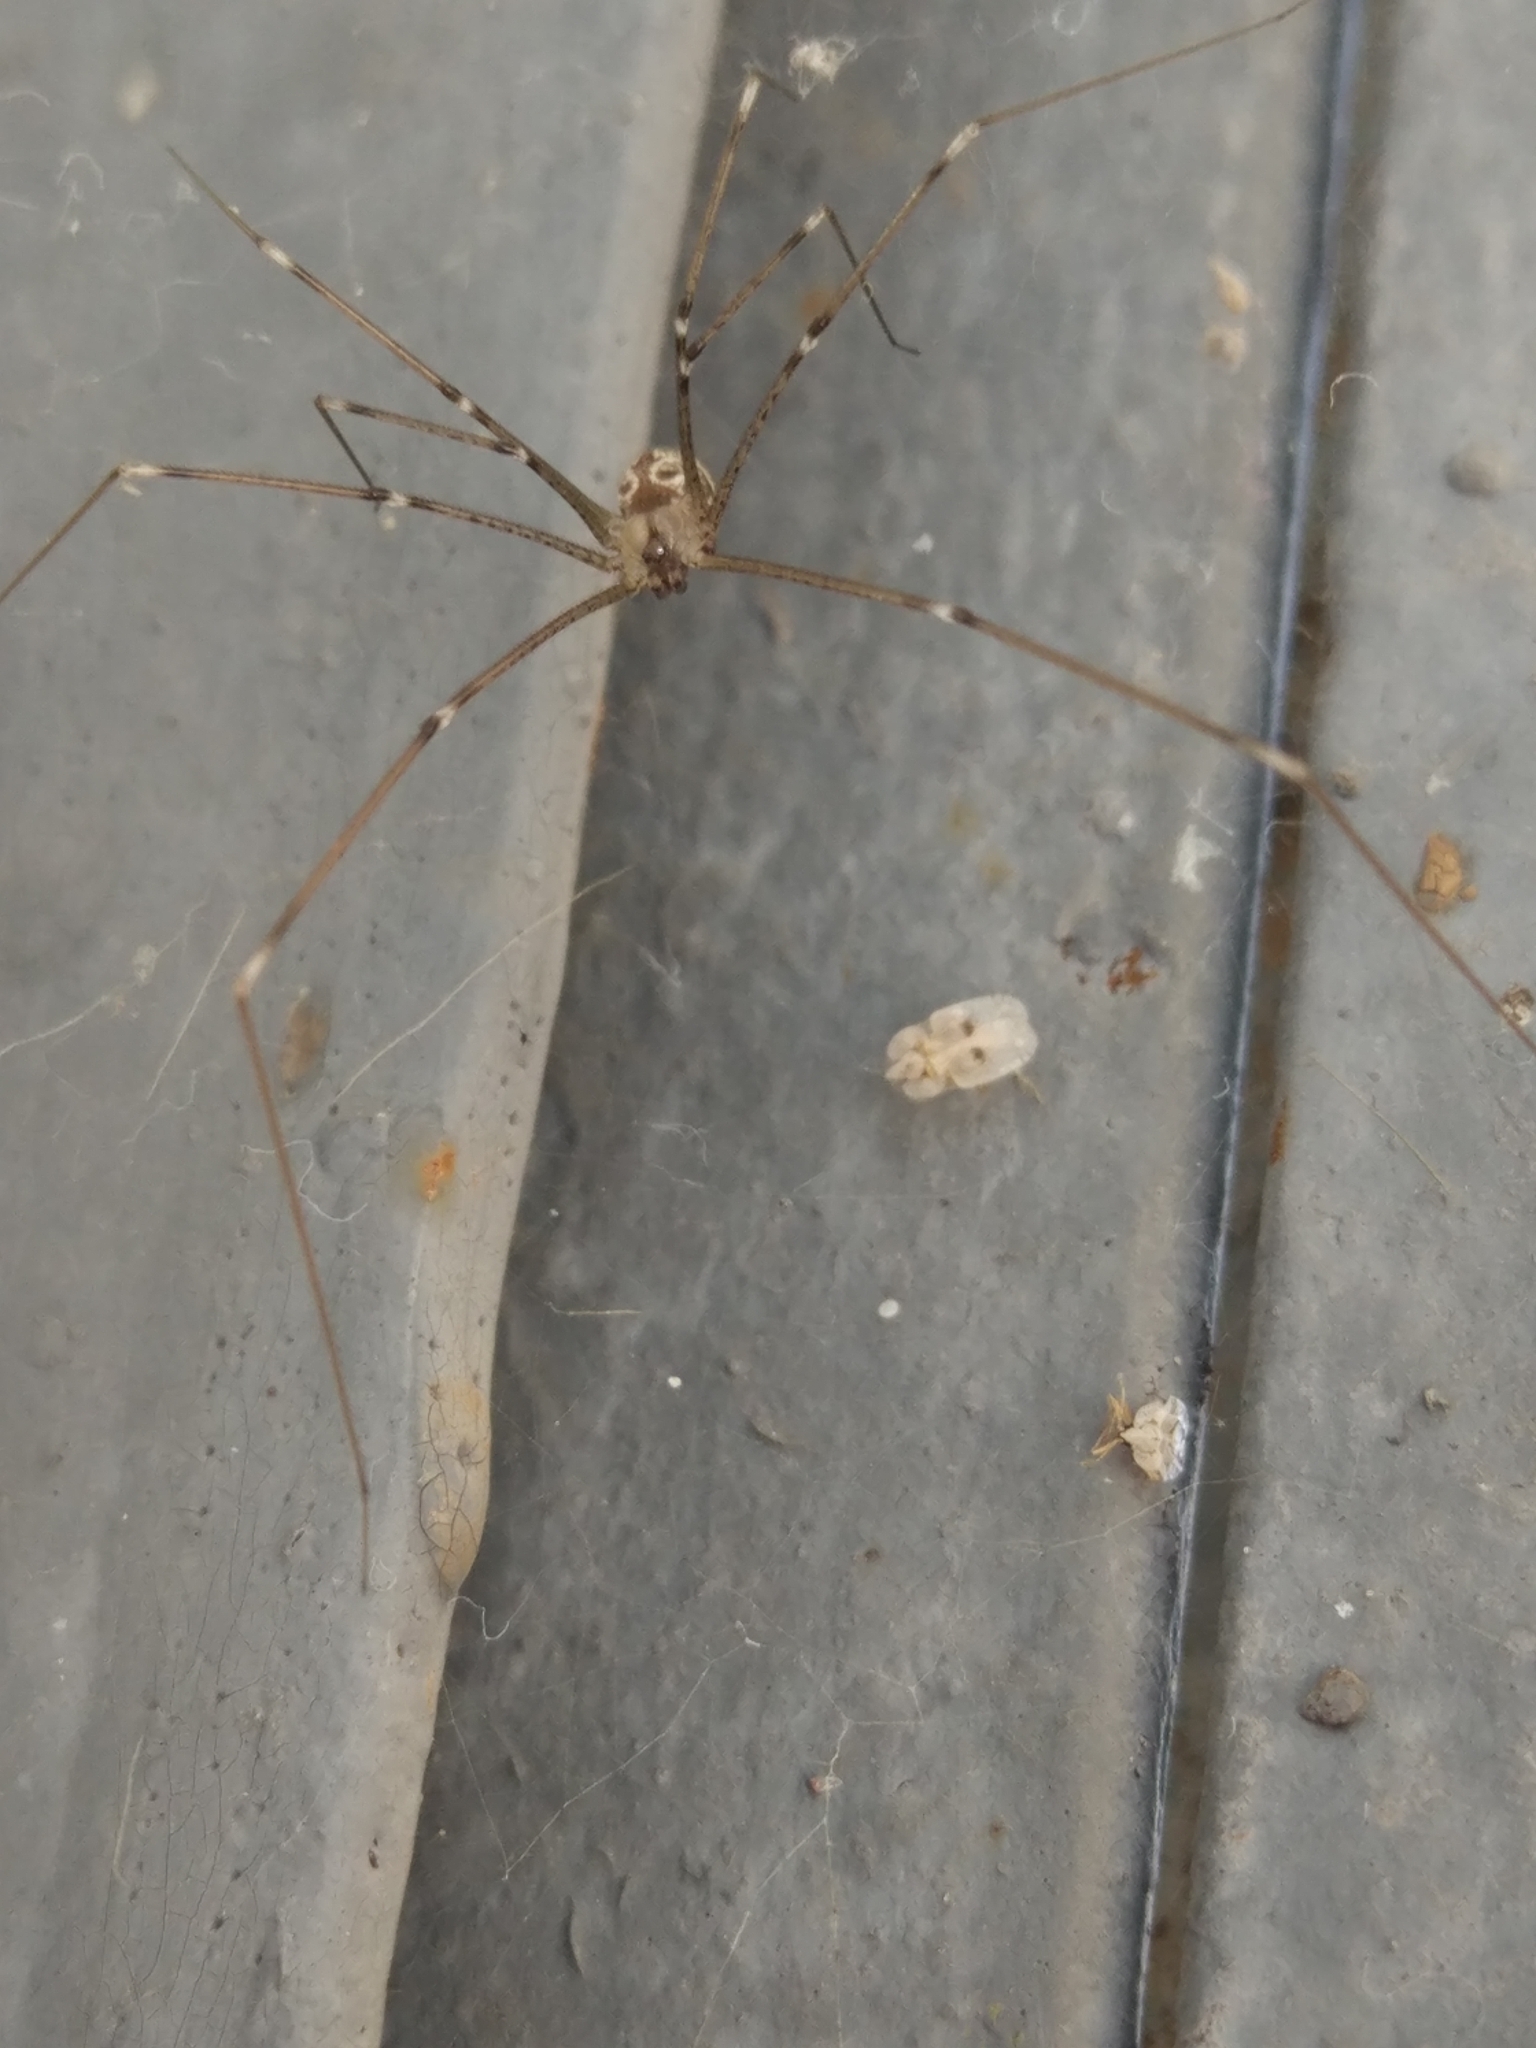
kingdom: Animalia
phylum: Arthropoda
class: Arachnida
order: Araneae
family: Pholcidae
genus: Holocnemus
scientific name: Holocnemus pluchei
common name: Marbled cellar spider
